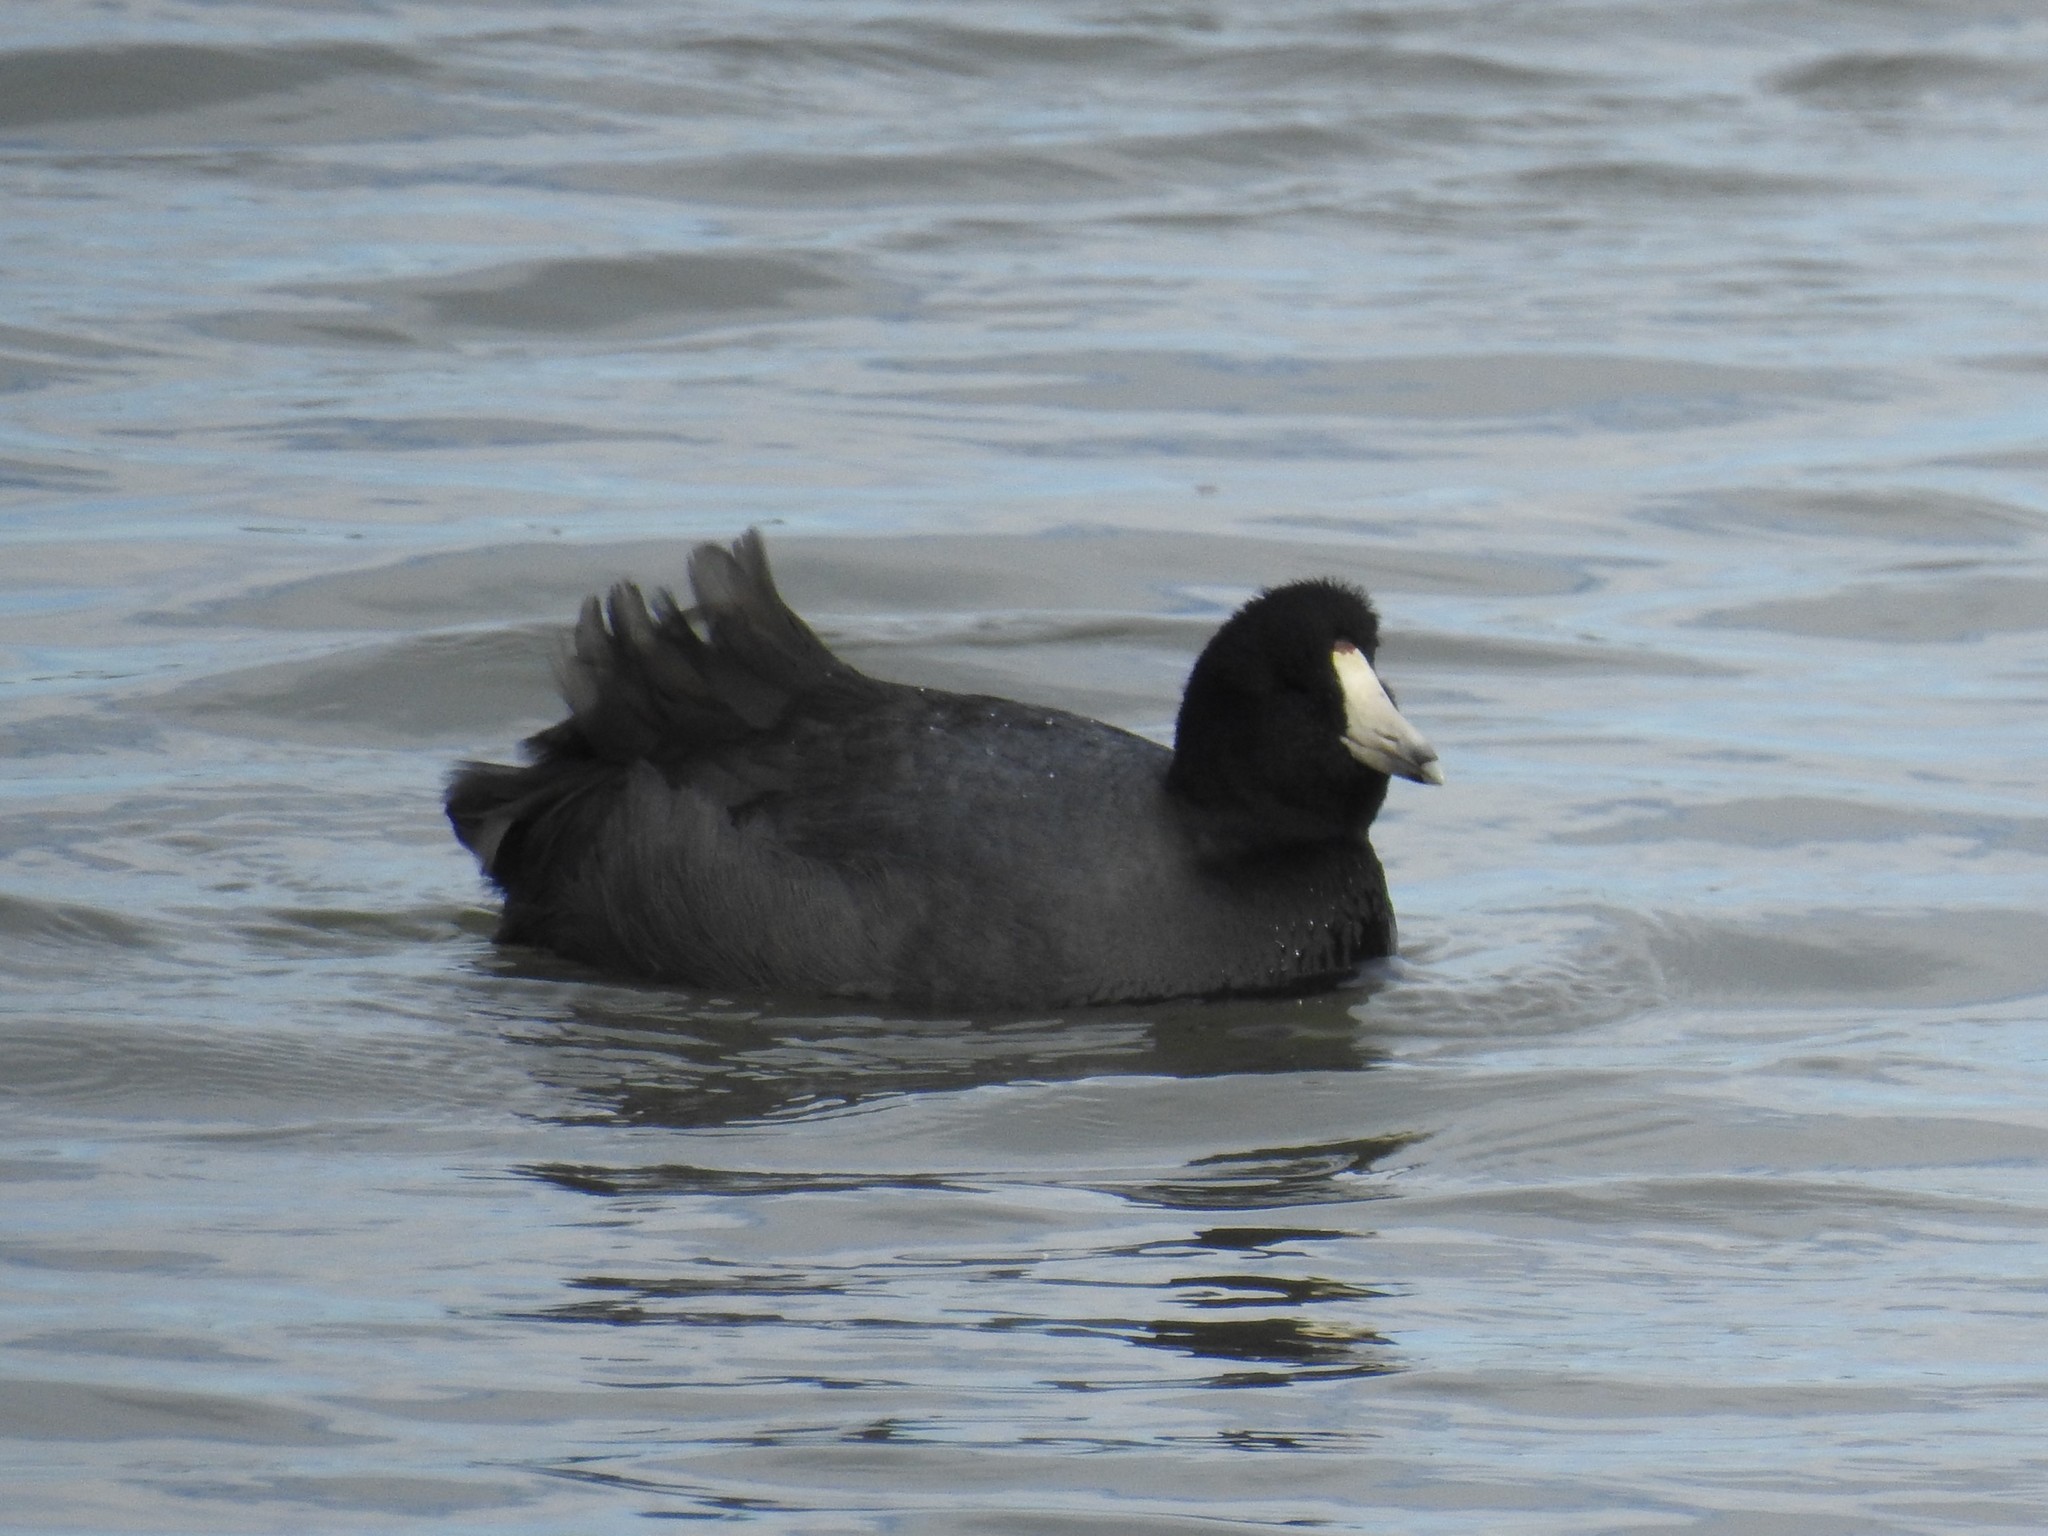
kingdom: Animalia
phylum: Chordata
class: Aves
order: Gruiformes
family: Rallidae
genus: Fulica
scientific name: Fulica americana
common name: American coot
